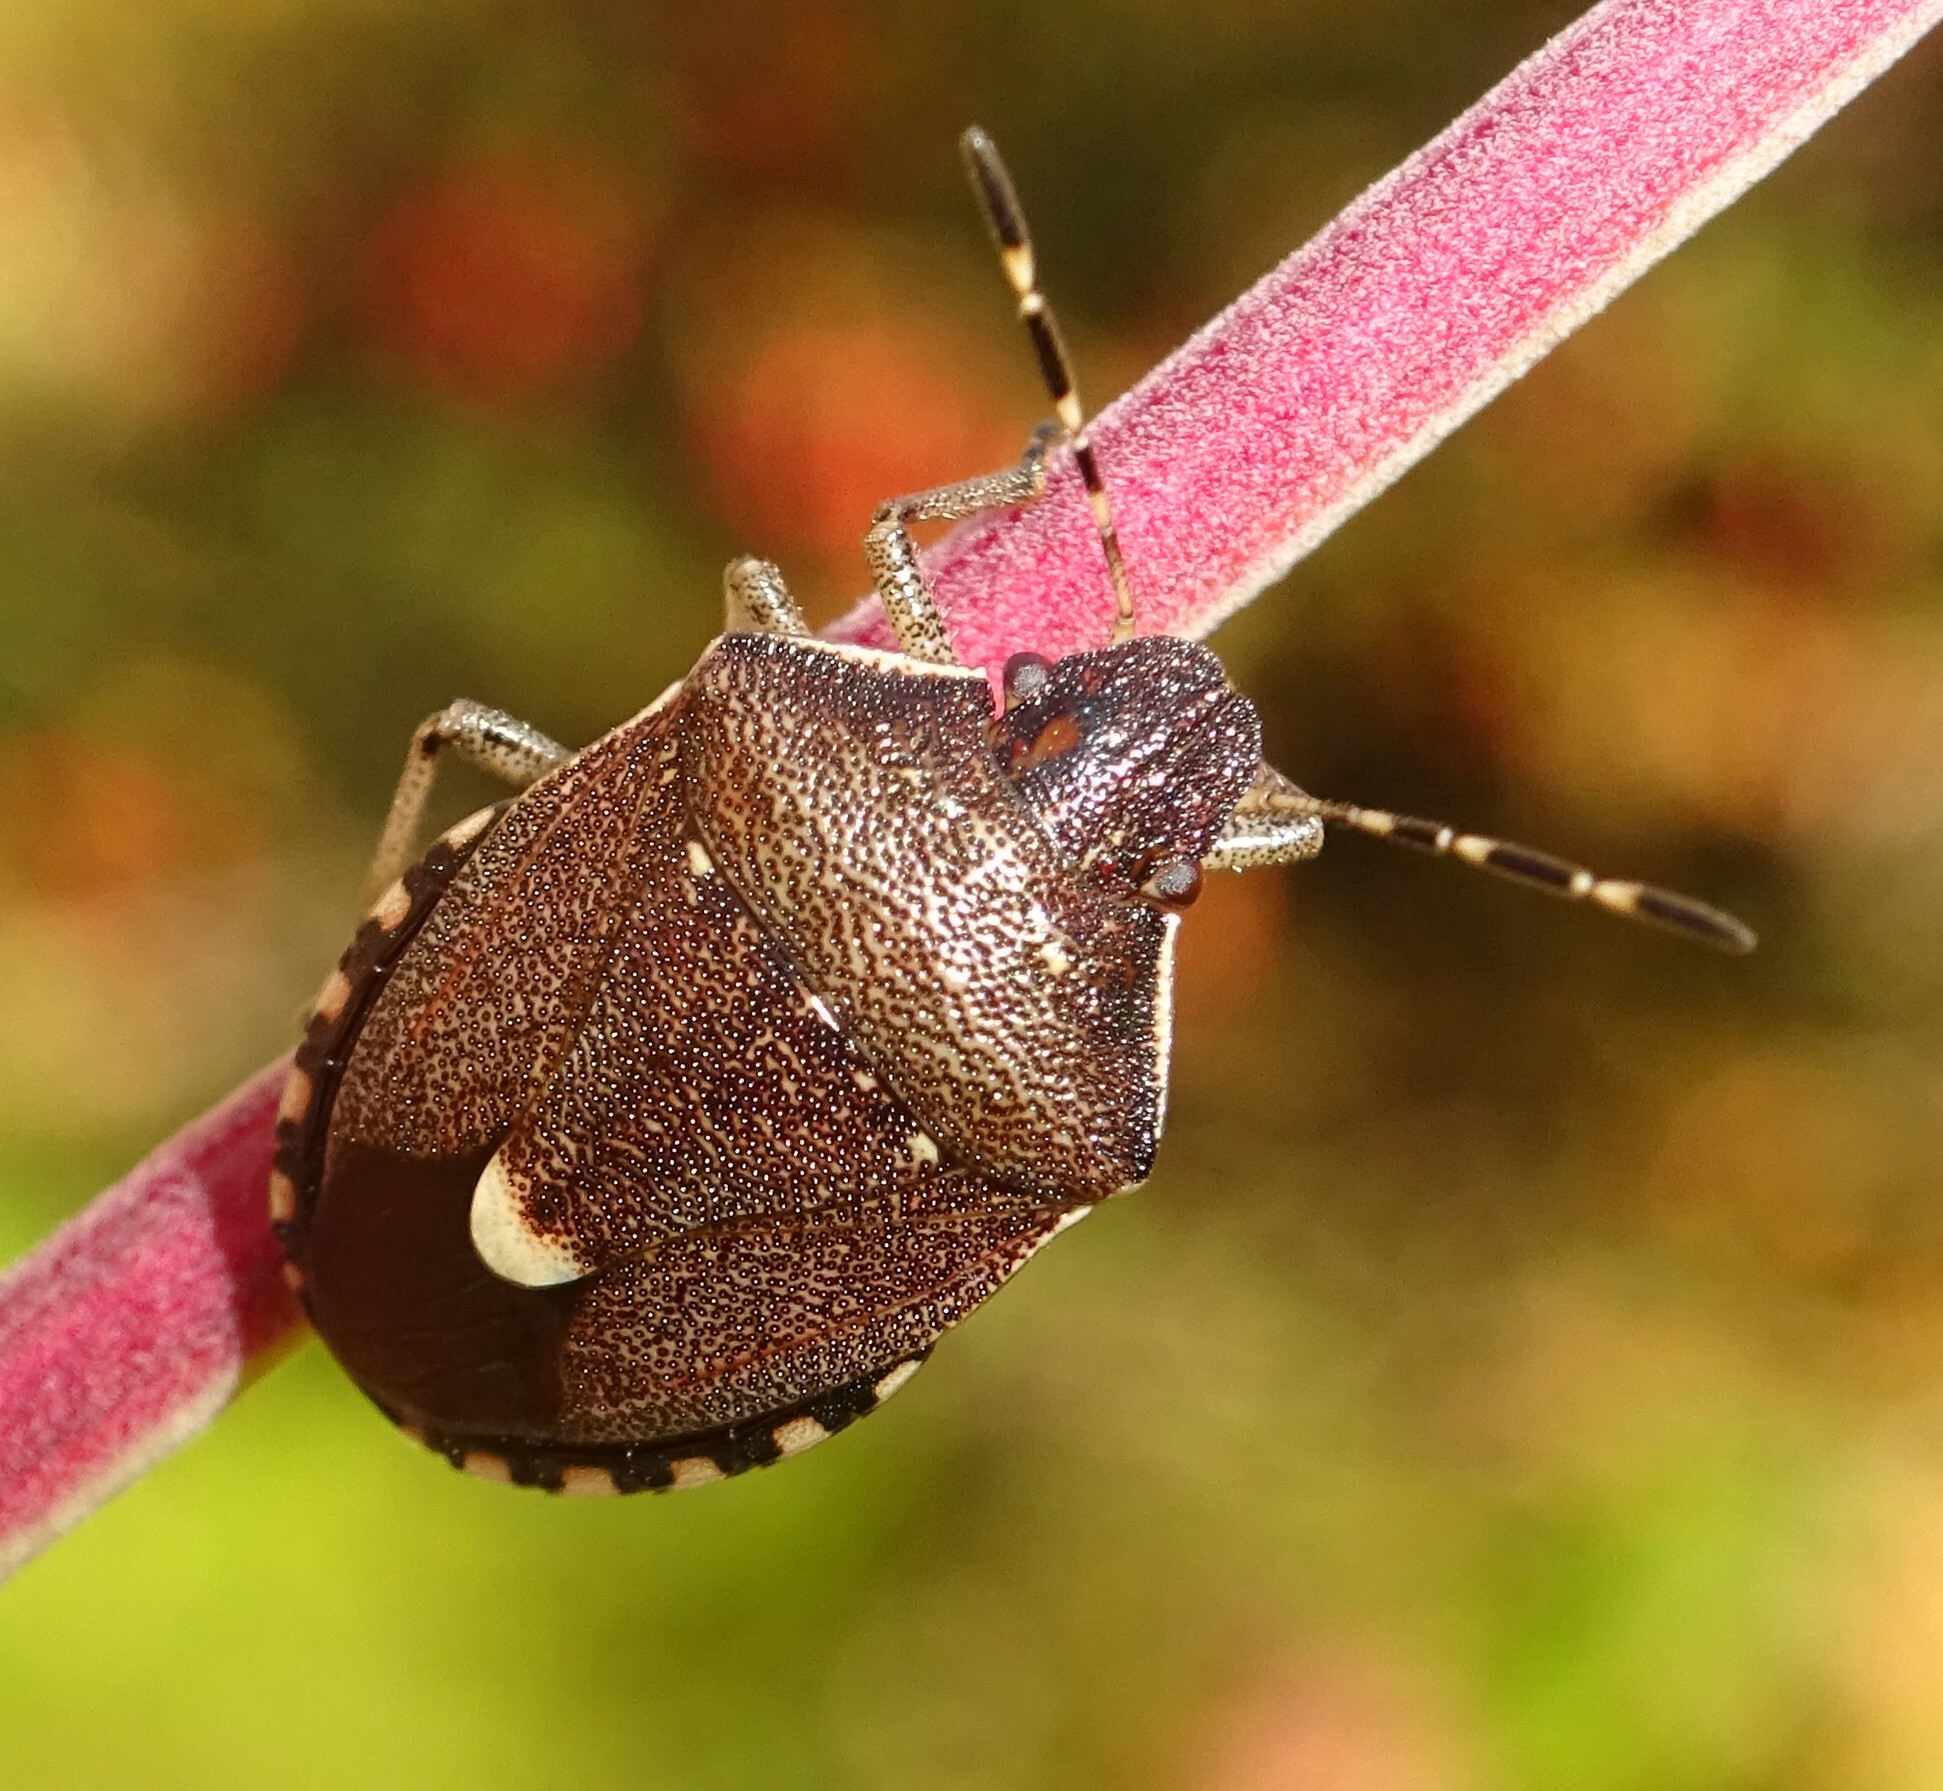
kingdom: Animalia
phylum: Arthropoda
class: Insecta
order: Hemiptera
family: Pentatomidae
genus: Holcostethus
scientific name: Holcostethus sphacelatus
